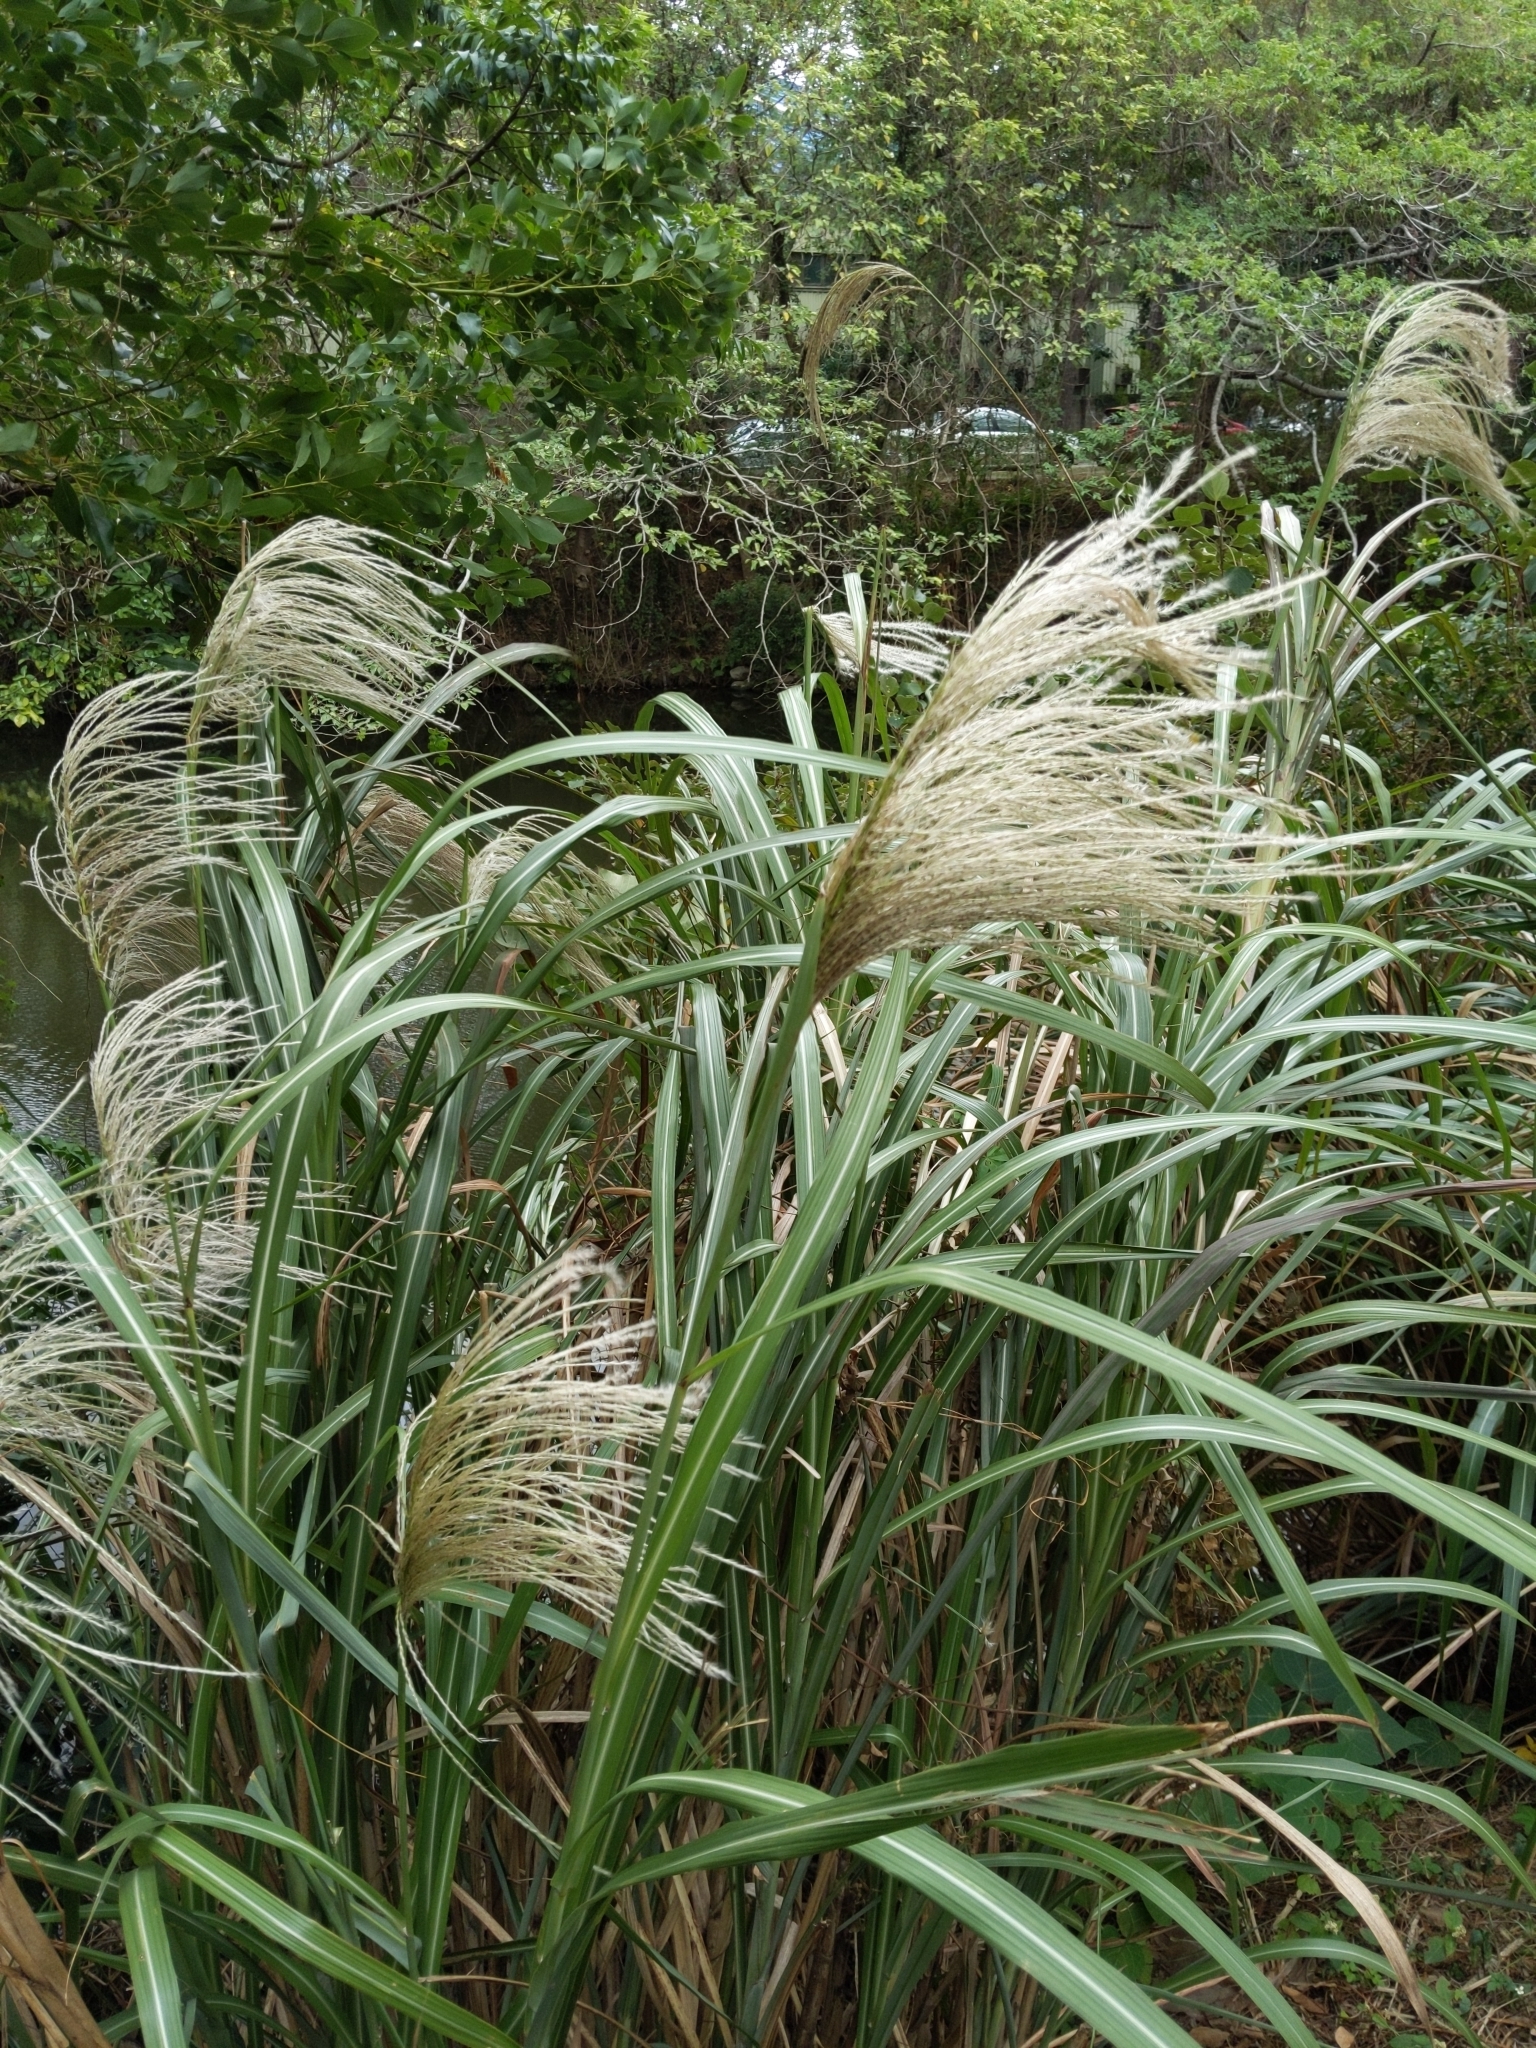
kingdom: Plantae
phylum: Tracheophyta
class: Liliopsida
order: Poales
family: Poaceae
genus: Miscanthus
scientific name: Miscanthus sinensis
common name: Chinese silvergrass
